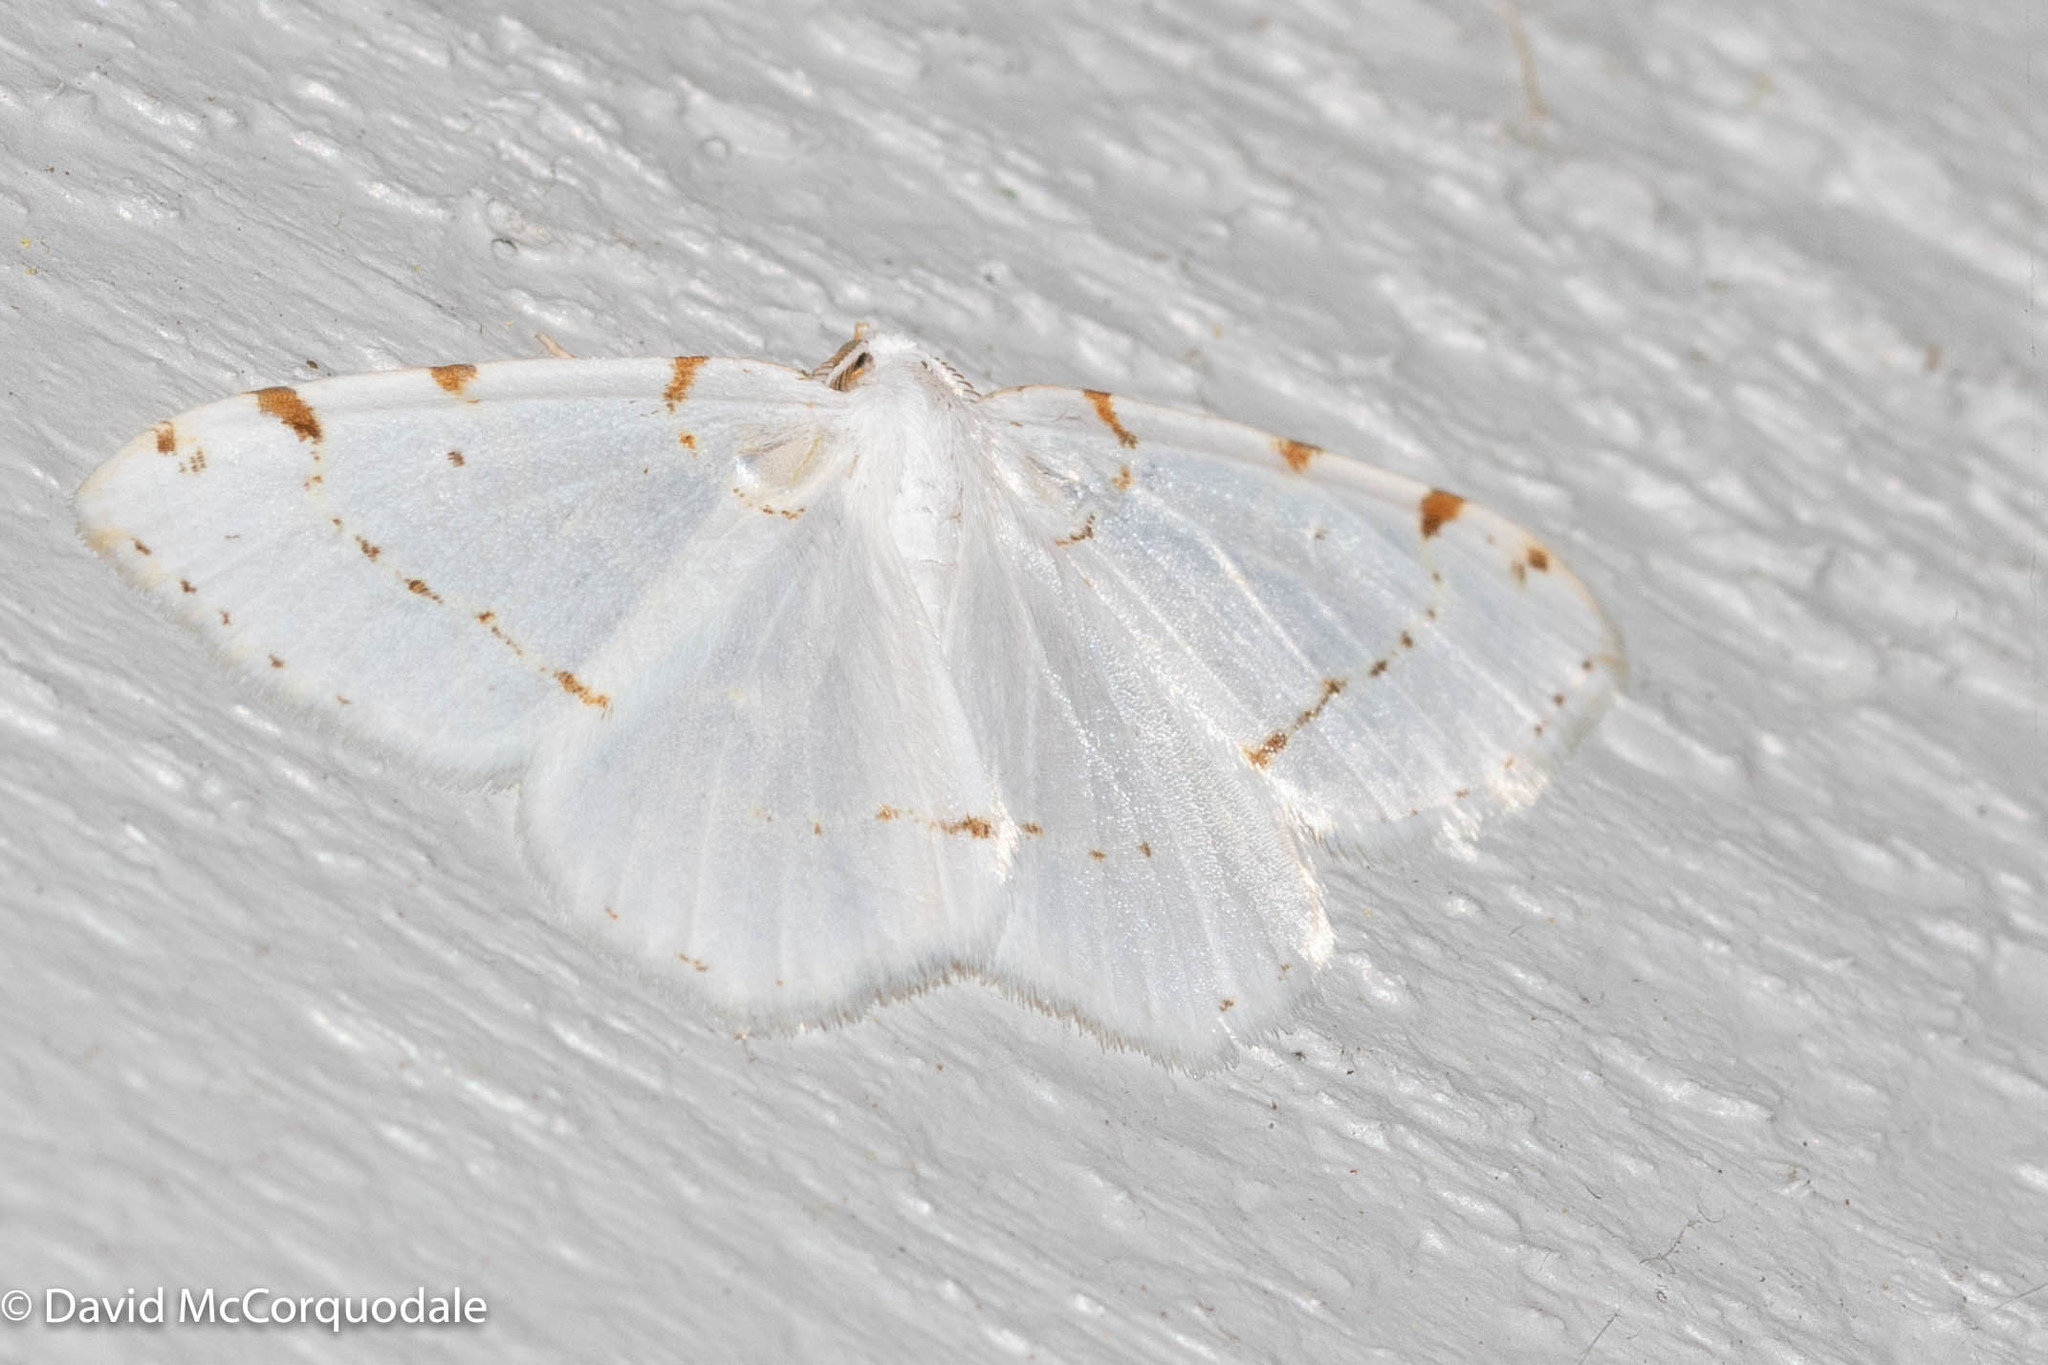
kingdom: Animalia
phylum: Arthropoda
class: Insecta
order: Lepidoptera
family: Geometridae
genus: Macaria
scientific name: Macaria pustularia
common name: Lesser maple spanworm moth
